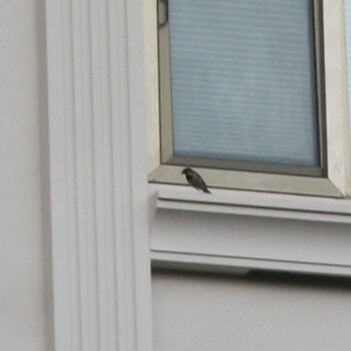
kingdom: Animalia
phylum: Chordata
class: Aves
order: Passeriformes
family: Passeridae
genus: Passer
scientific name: Passer domesticus
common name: House sparrow
